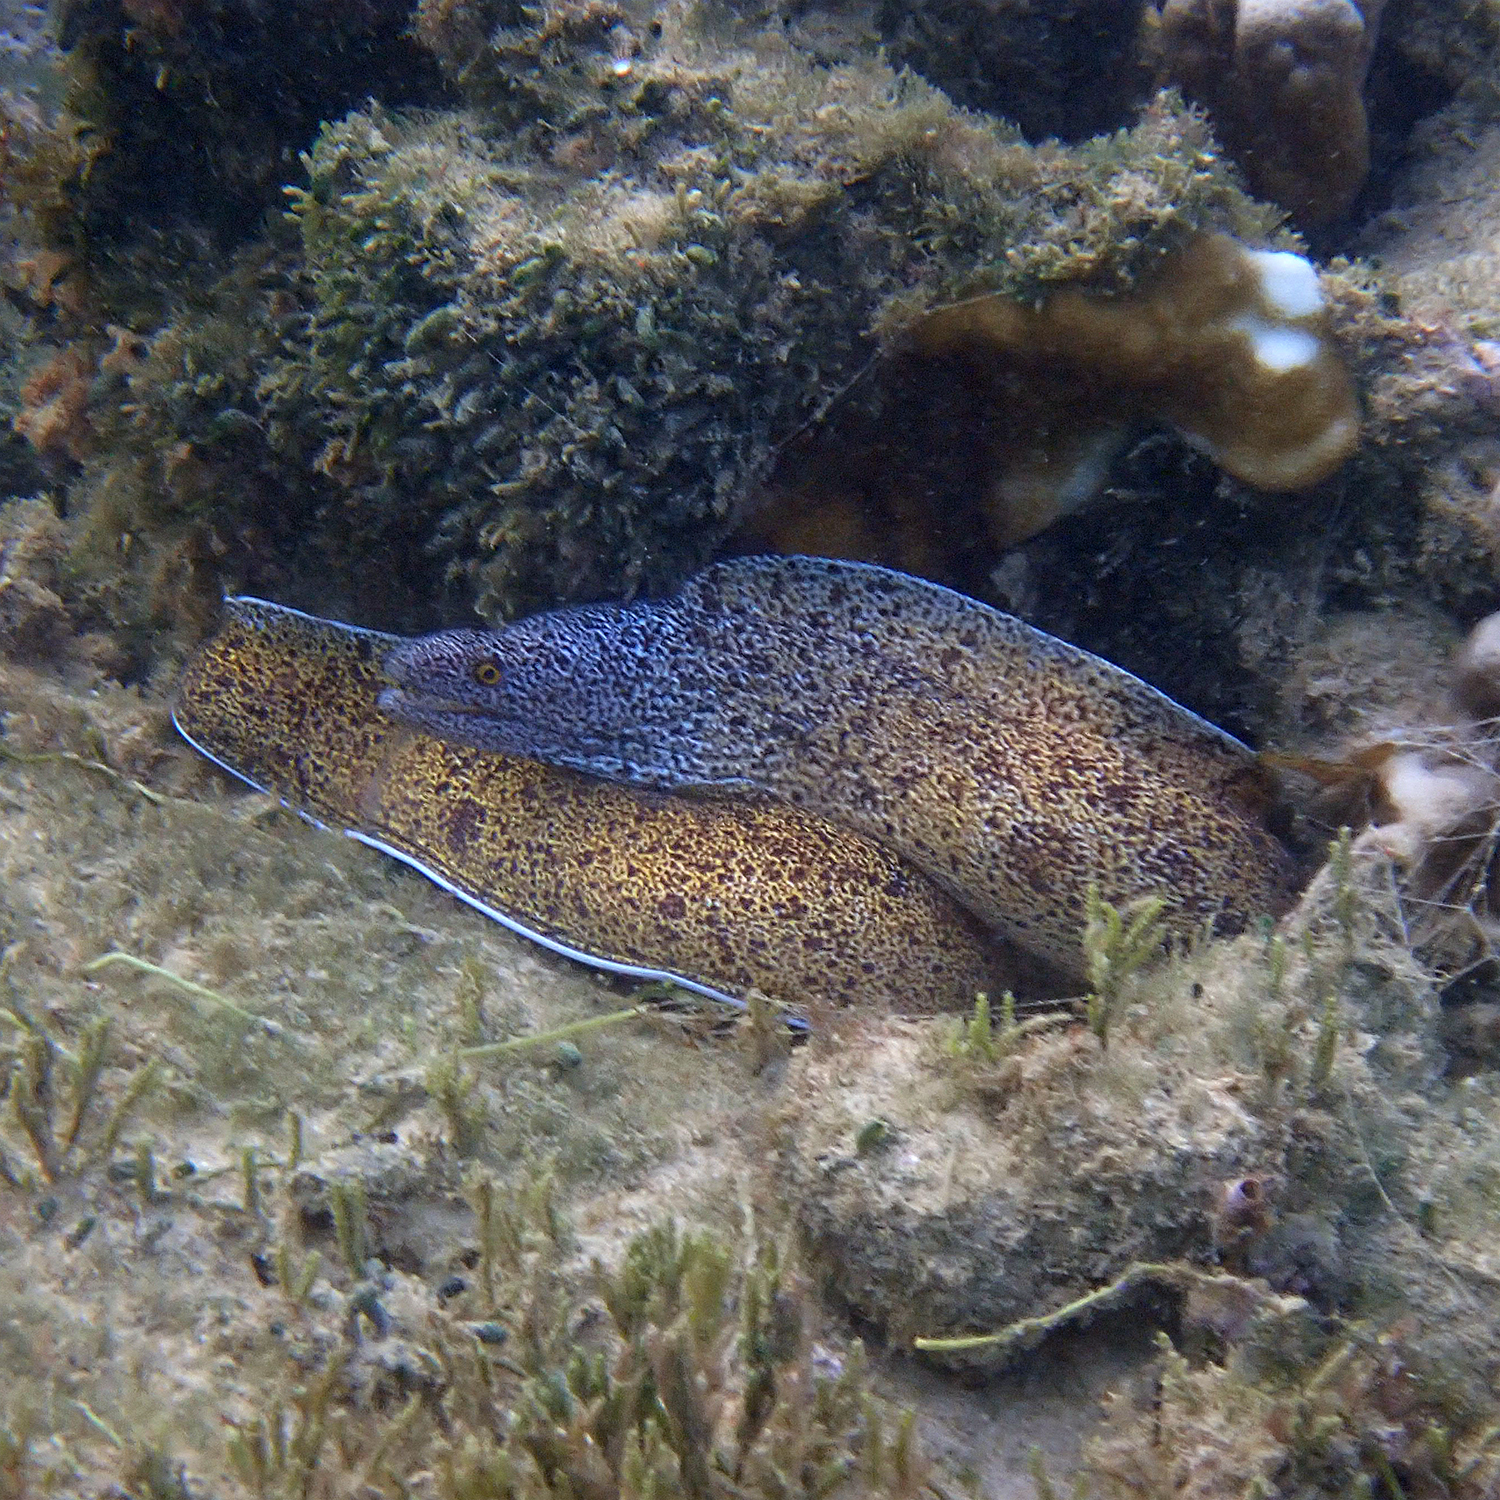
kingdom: Animalia
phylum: Chordata
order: Anguilliformes
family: Muraenidae
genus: Gymnothorax
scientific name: Gymnothorax annasona
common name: Lord howe island moray
